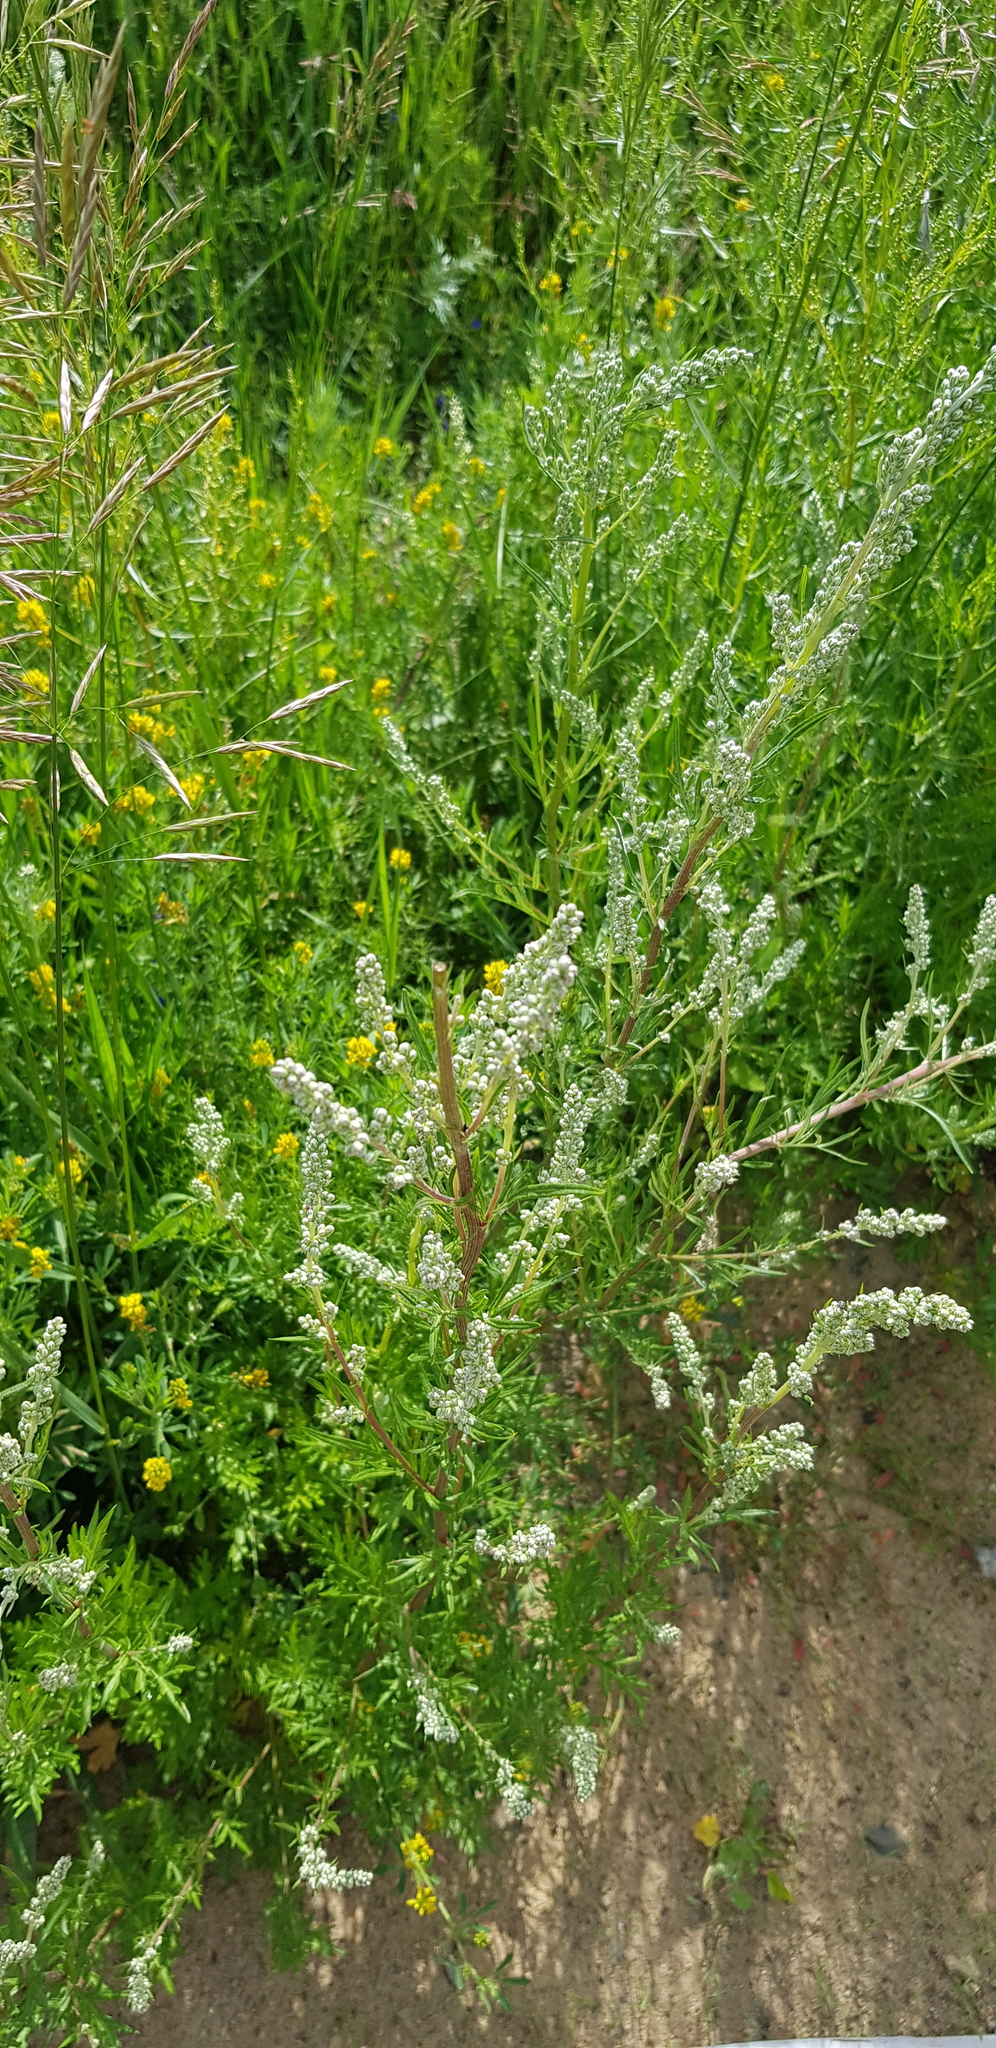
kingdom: Plantae
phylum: Tracheophyta
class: Magnoliopsida
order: Asterales
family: Asteraceae
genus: Artemisia
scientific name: Artemisia vulgaris
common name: Mugwort
